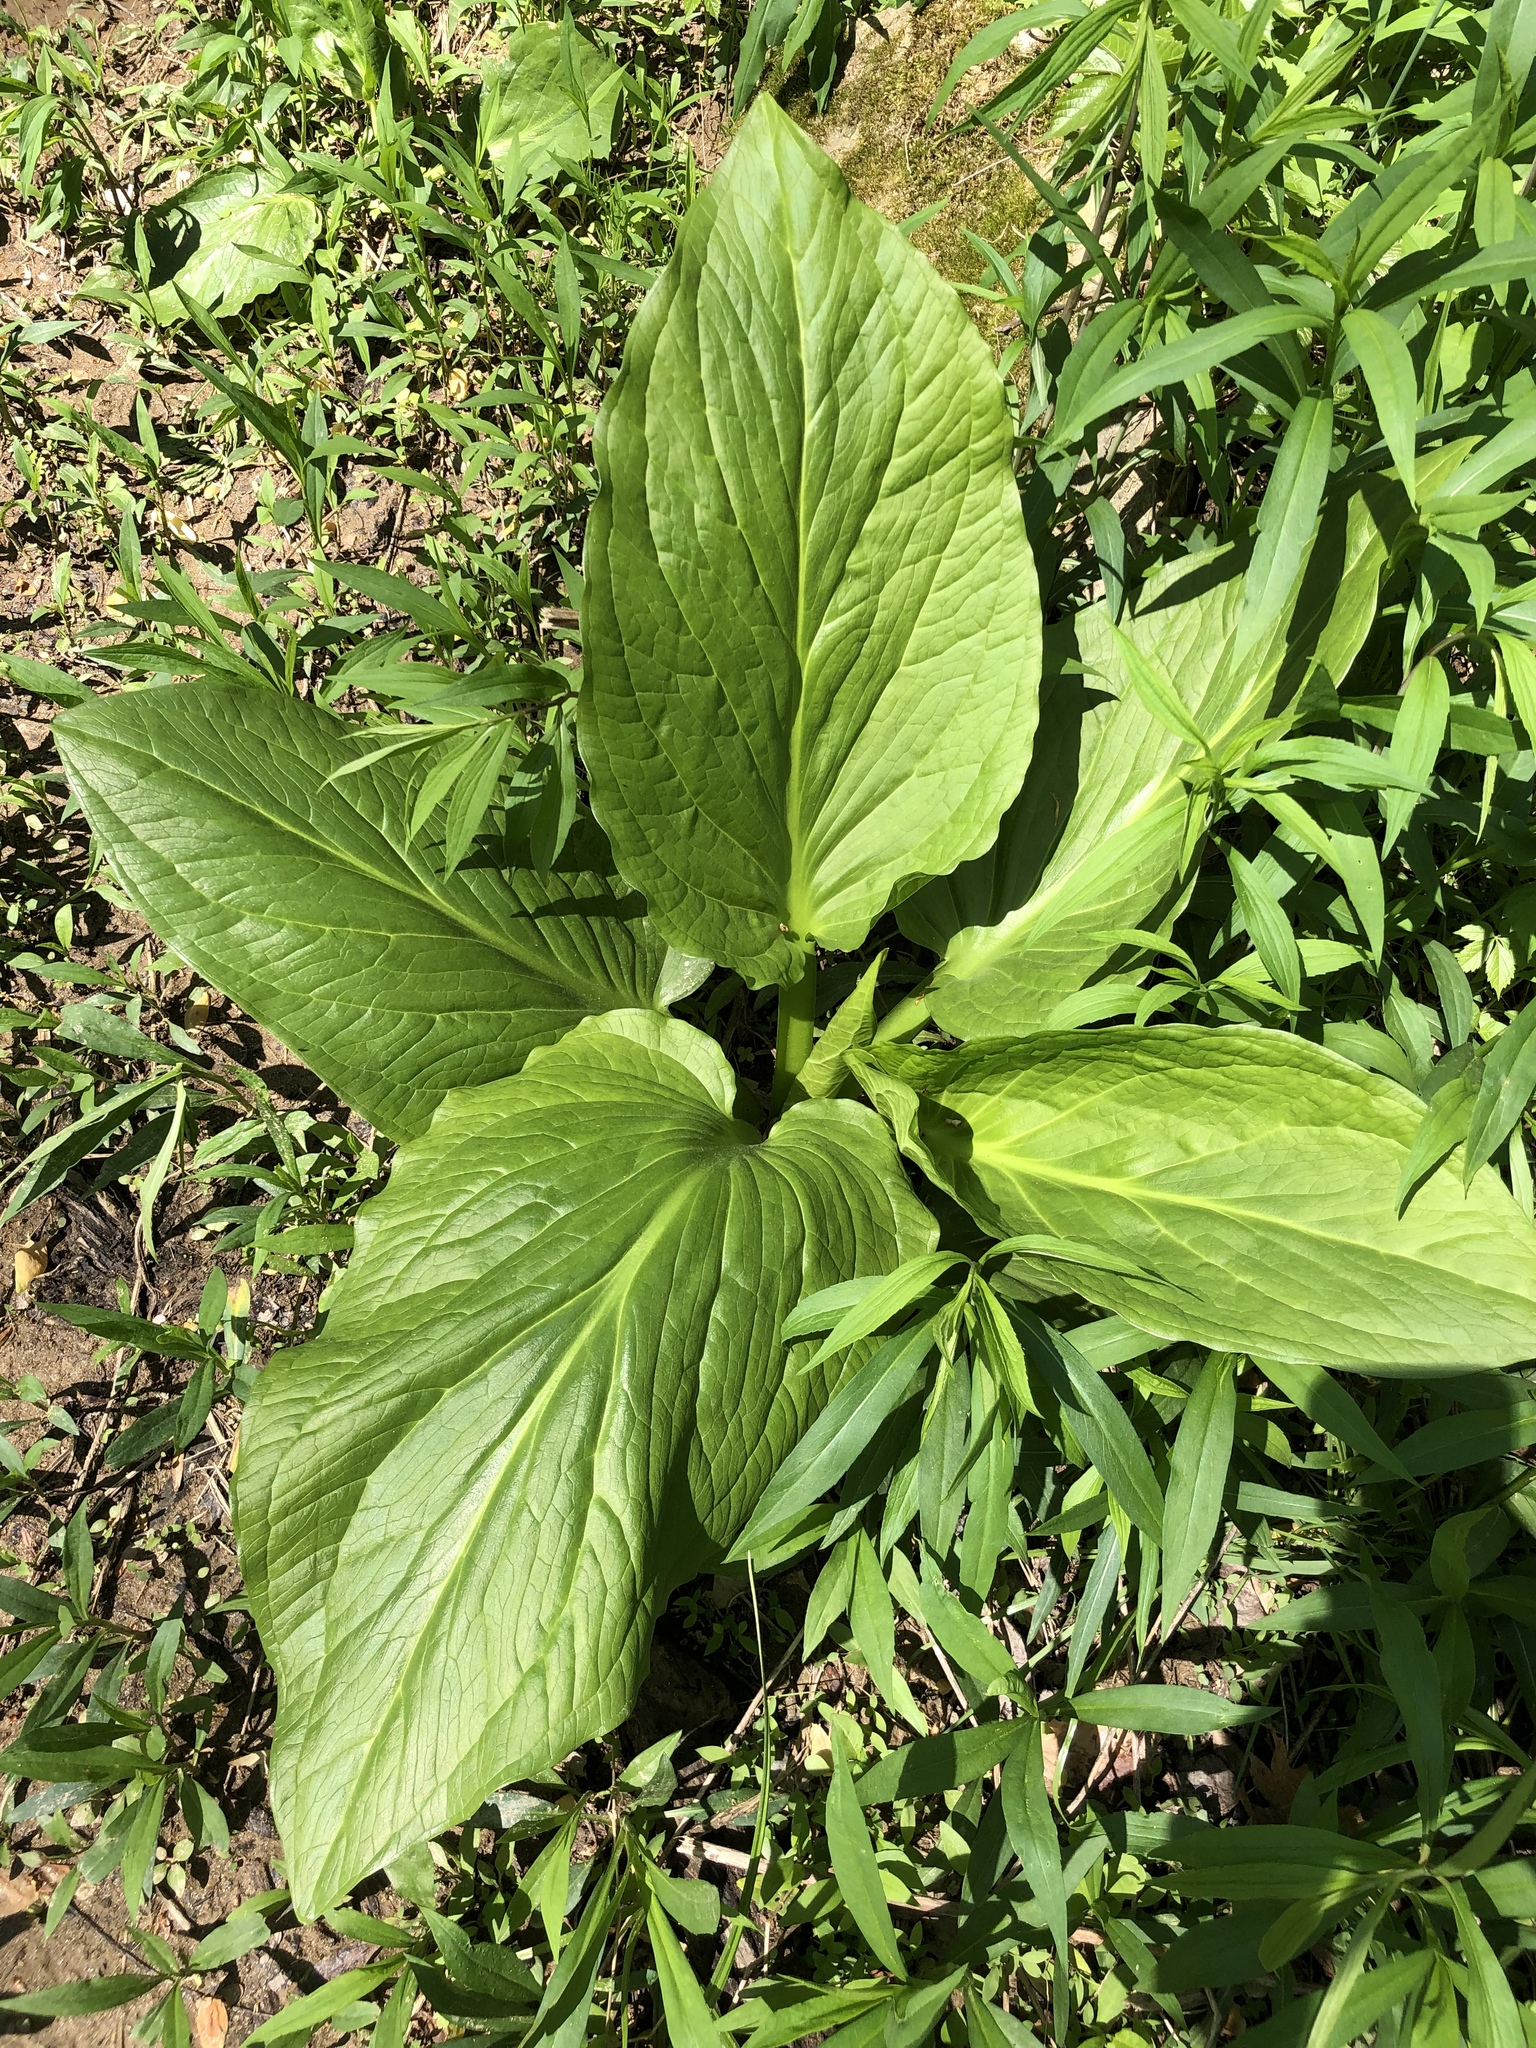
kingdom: Plantae
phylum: Tracheophyta
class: Liliopsida
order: Alismatales
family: Araceae
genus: Symplocarpus
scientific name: Symplocarpus foetidus
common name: Eastern skunk cabbage
